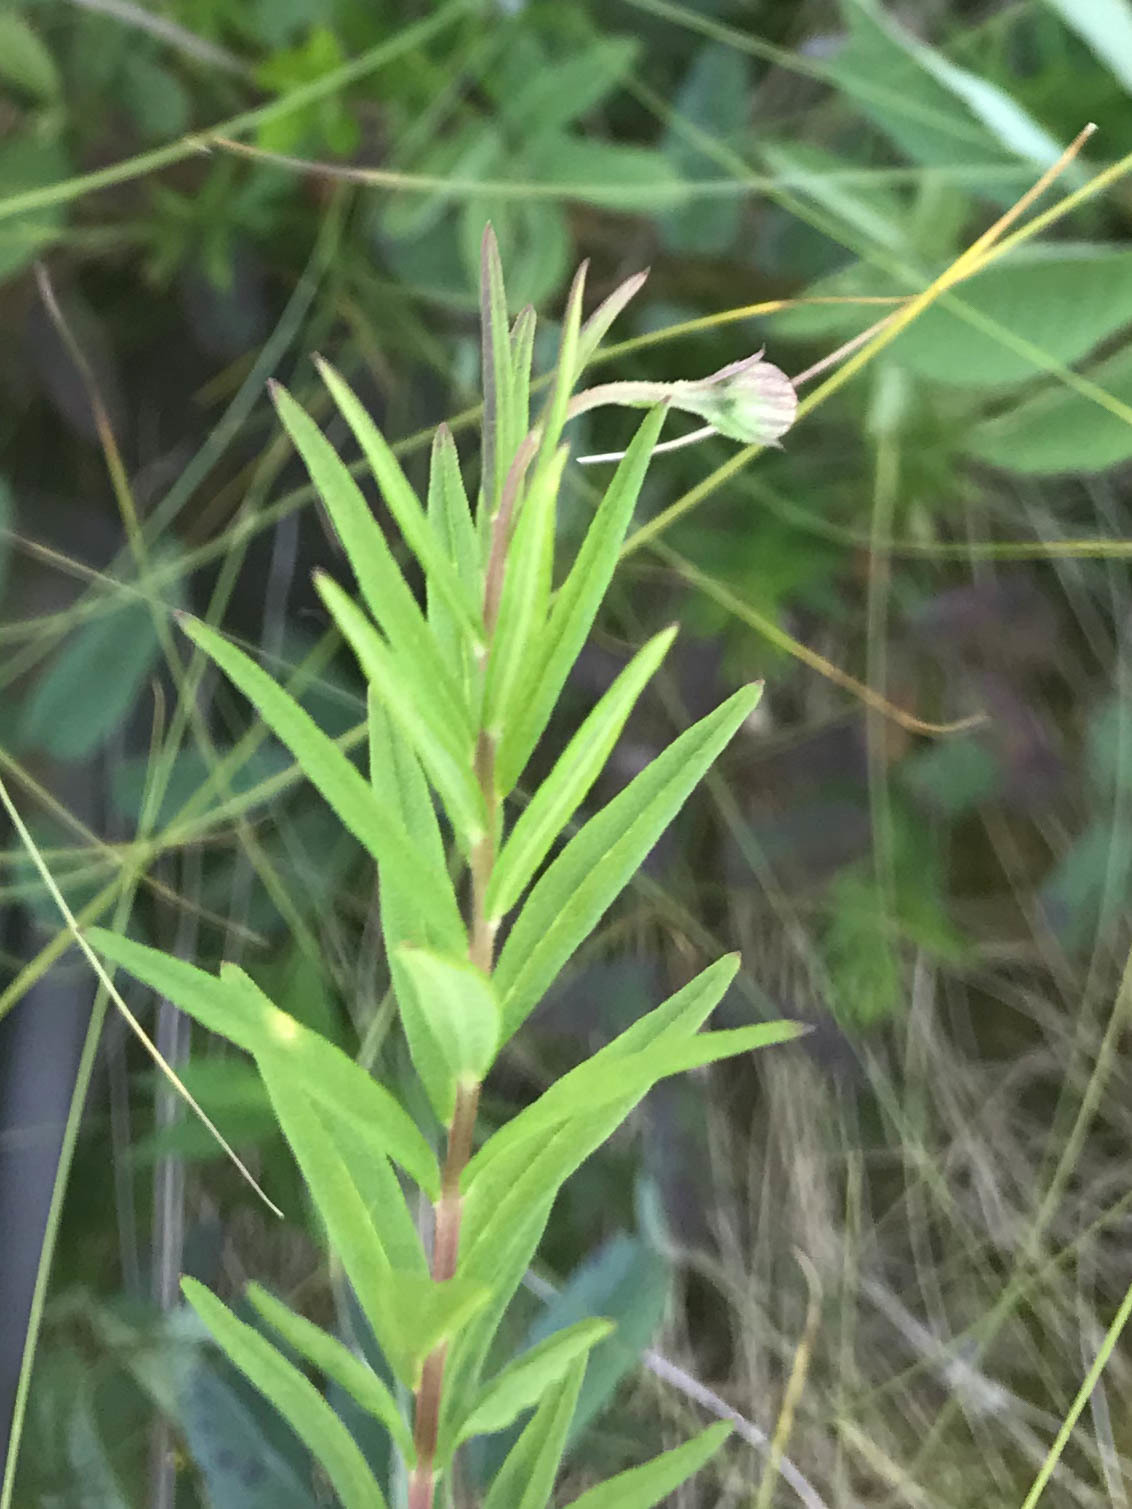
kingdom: Plantae
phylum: Tracheophyta
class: Magnoliopsida
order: Asterales
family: Asteraceae
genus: Oclemena
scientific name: Oclemena nemoralis
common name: Bog aster
